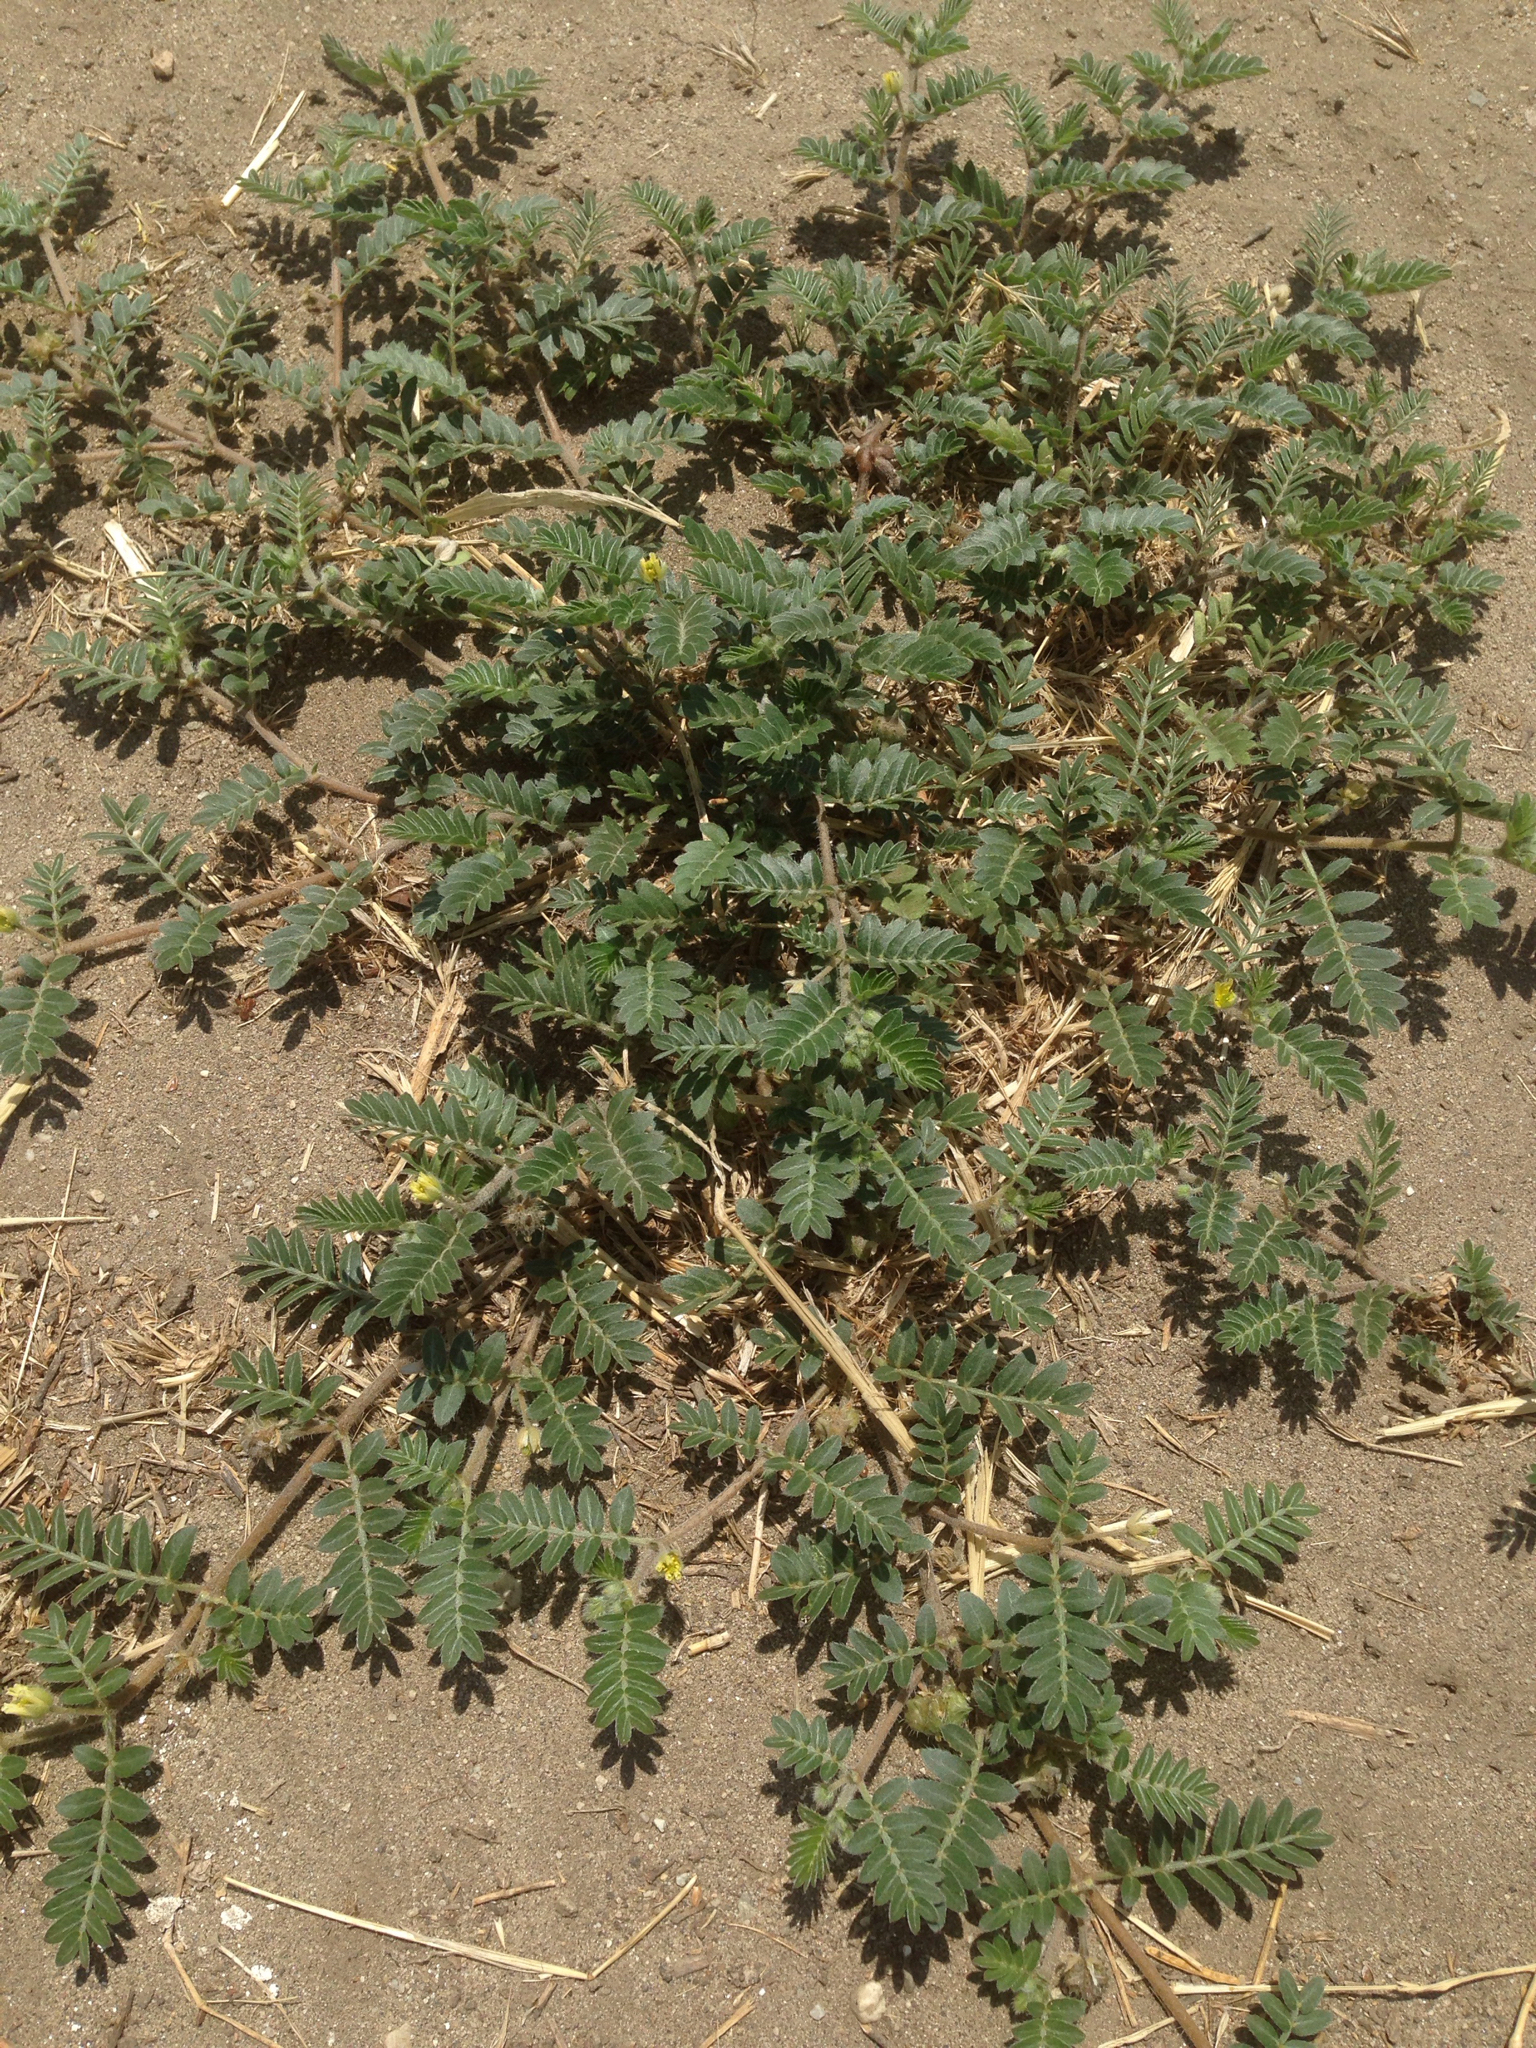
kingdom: Plantae
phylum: Tracheophyta
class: Magnoliopsida
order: Zygophyllales
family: Zygophyllaceae
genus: Tribulus
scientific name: Tribulus terrestris
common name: Puncturevine
